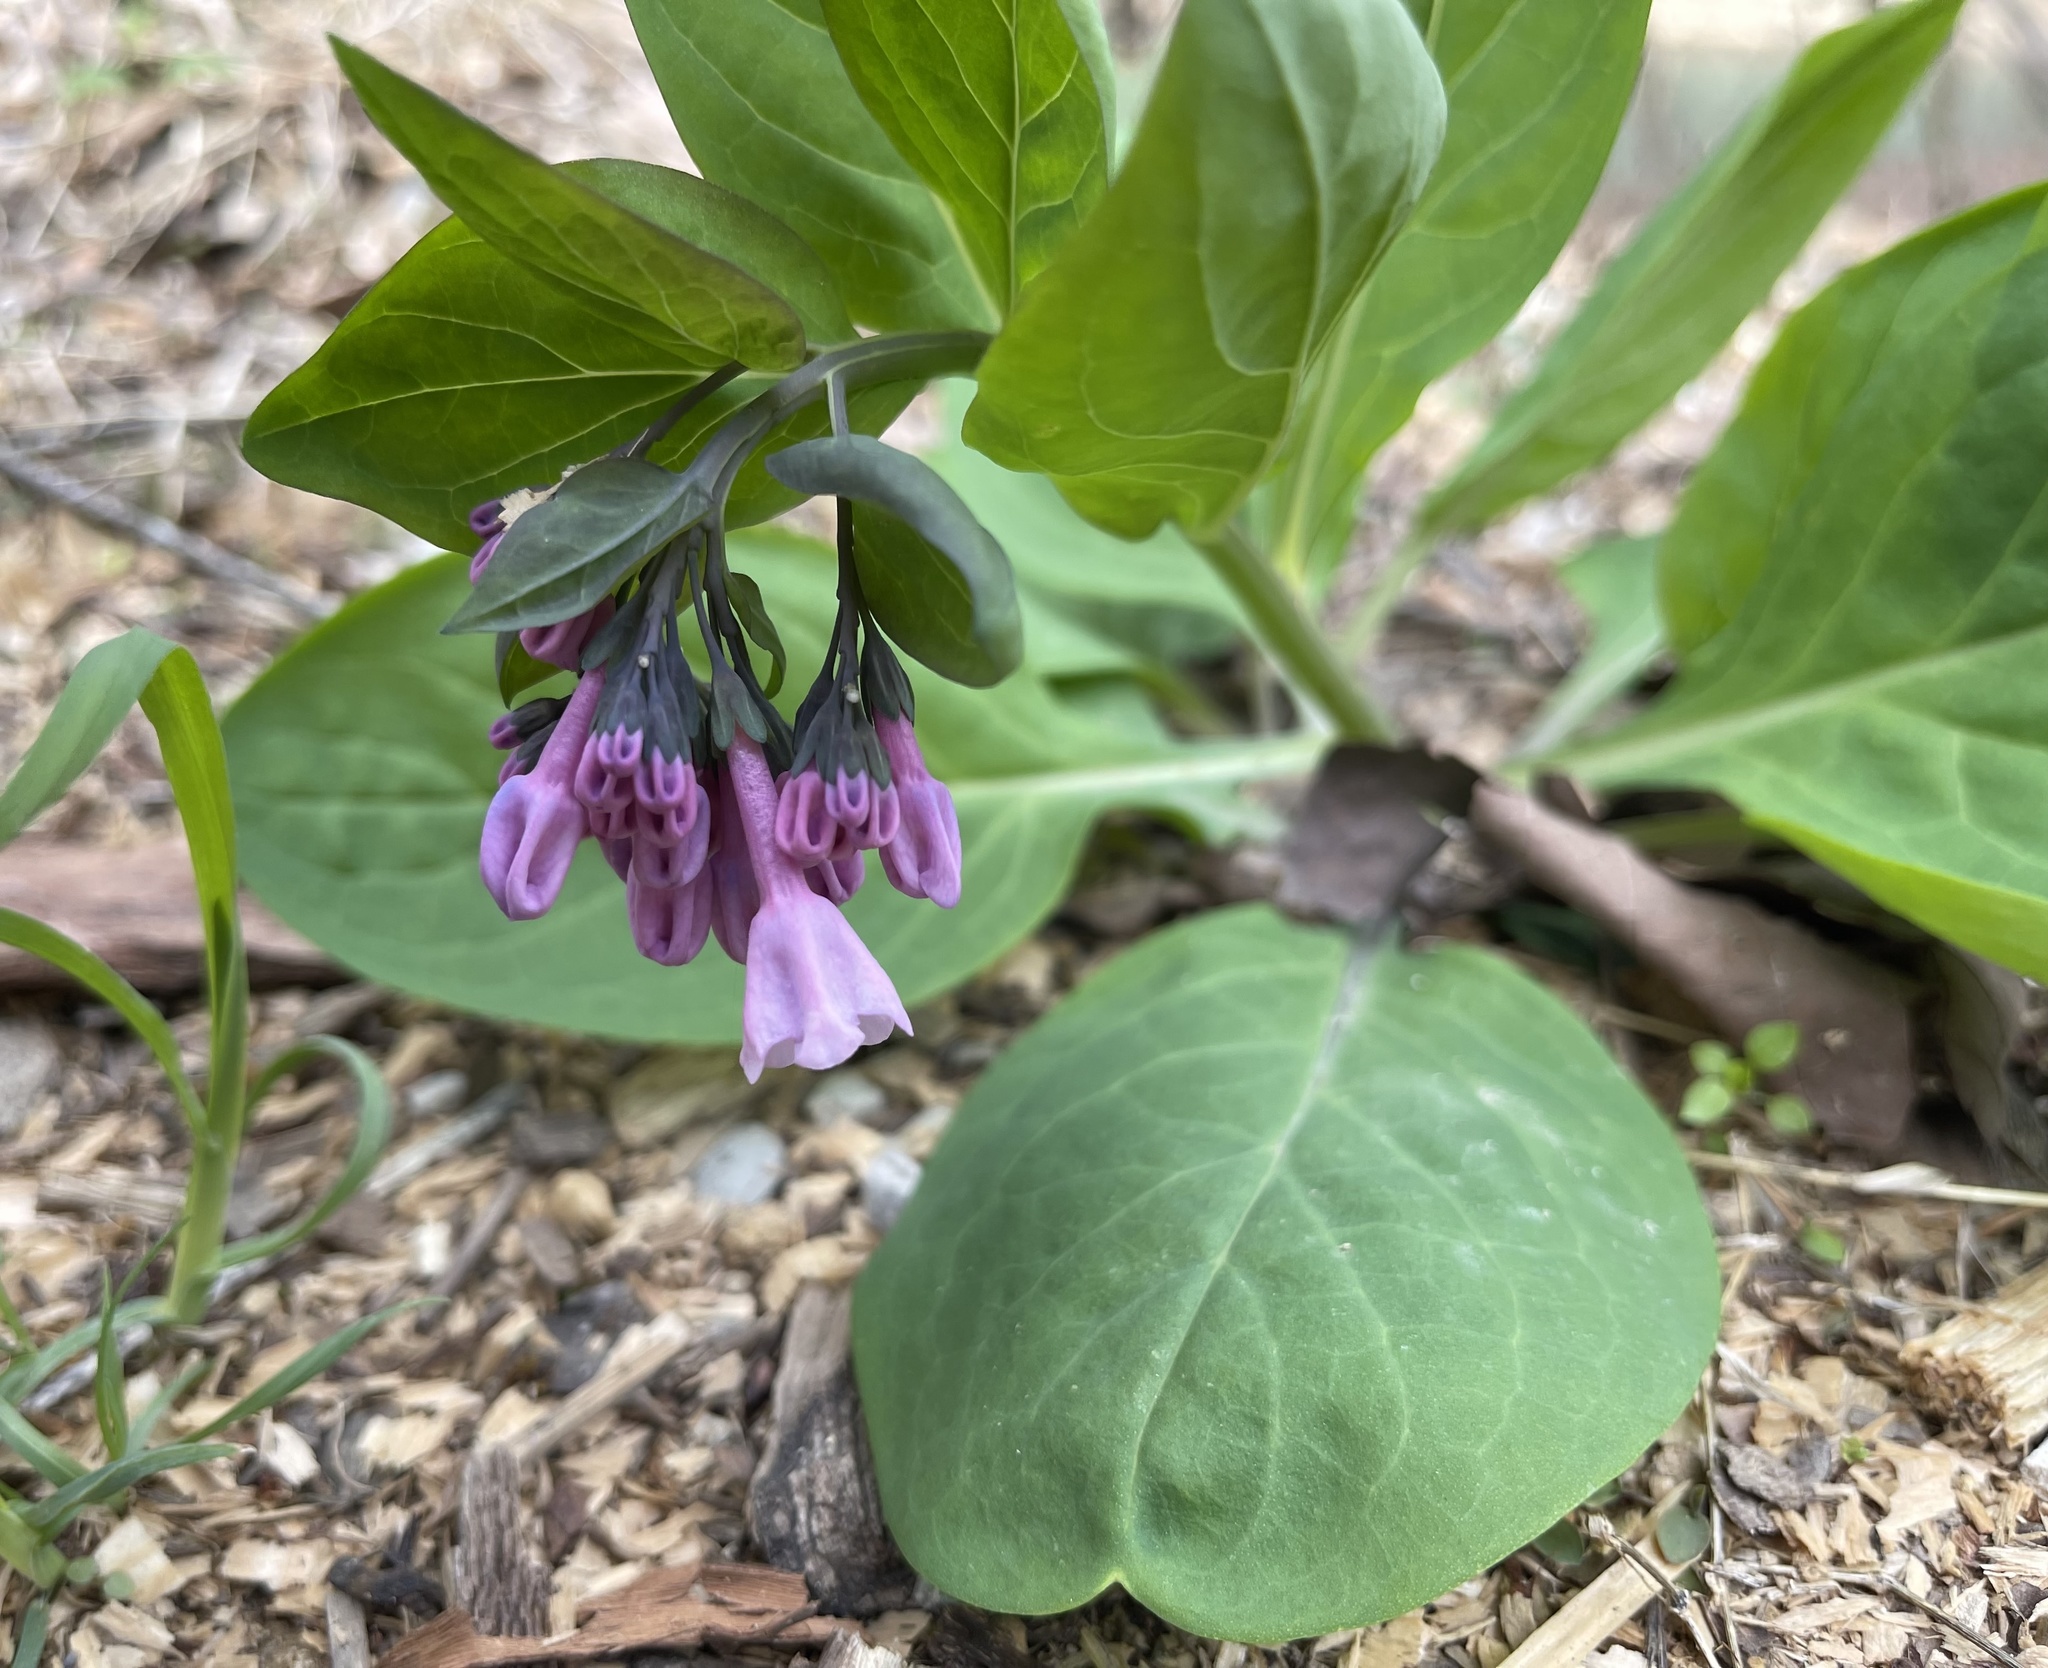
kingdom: Plantae
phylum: Tracheophyta
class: Magnoliopsida
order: Boraginales
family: Boraginaceae
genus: Mertensia
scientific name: Mertensia virginica
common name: Virginia bluebells
